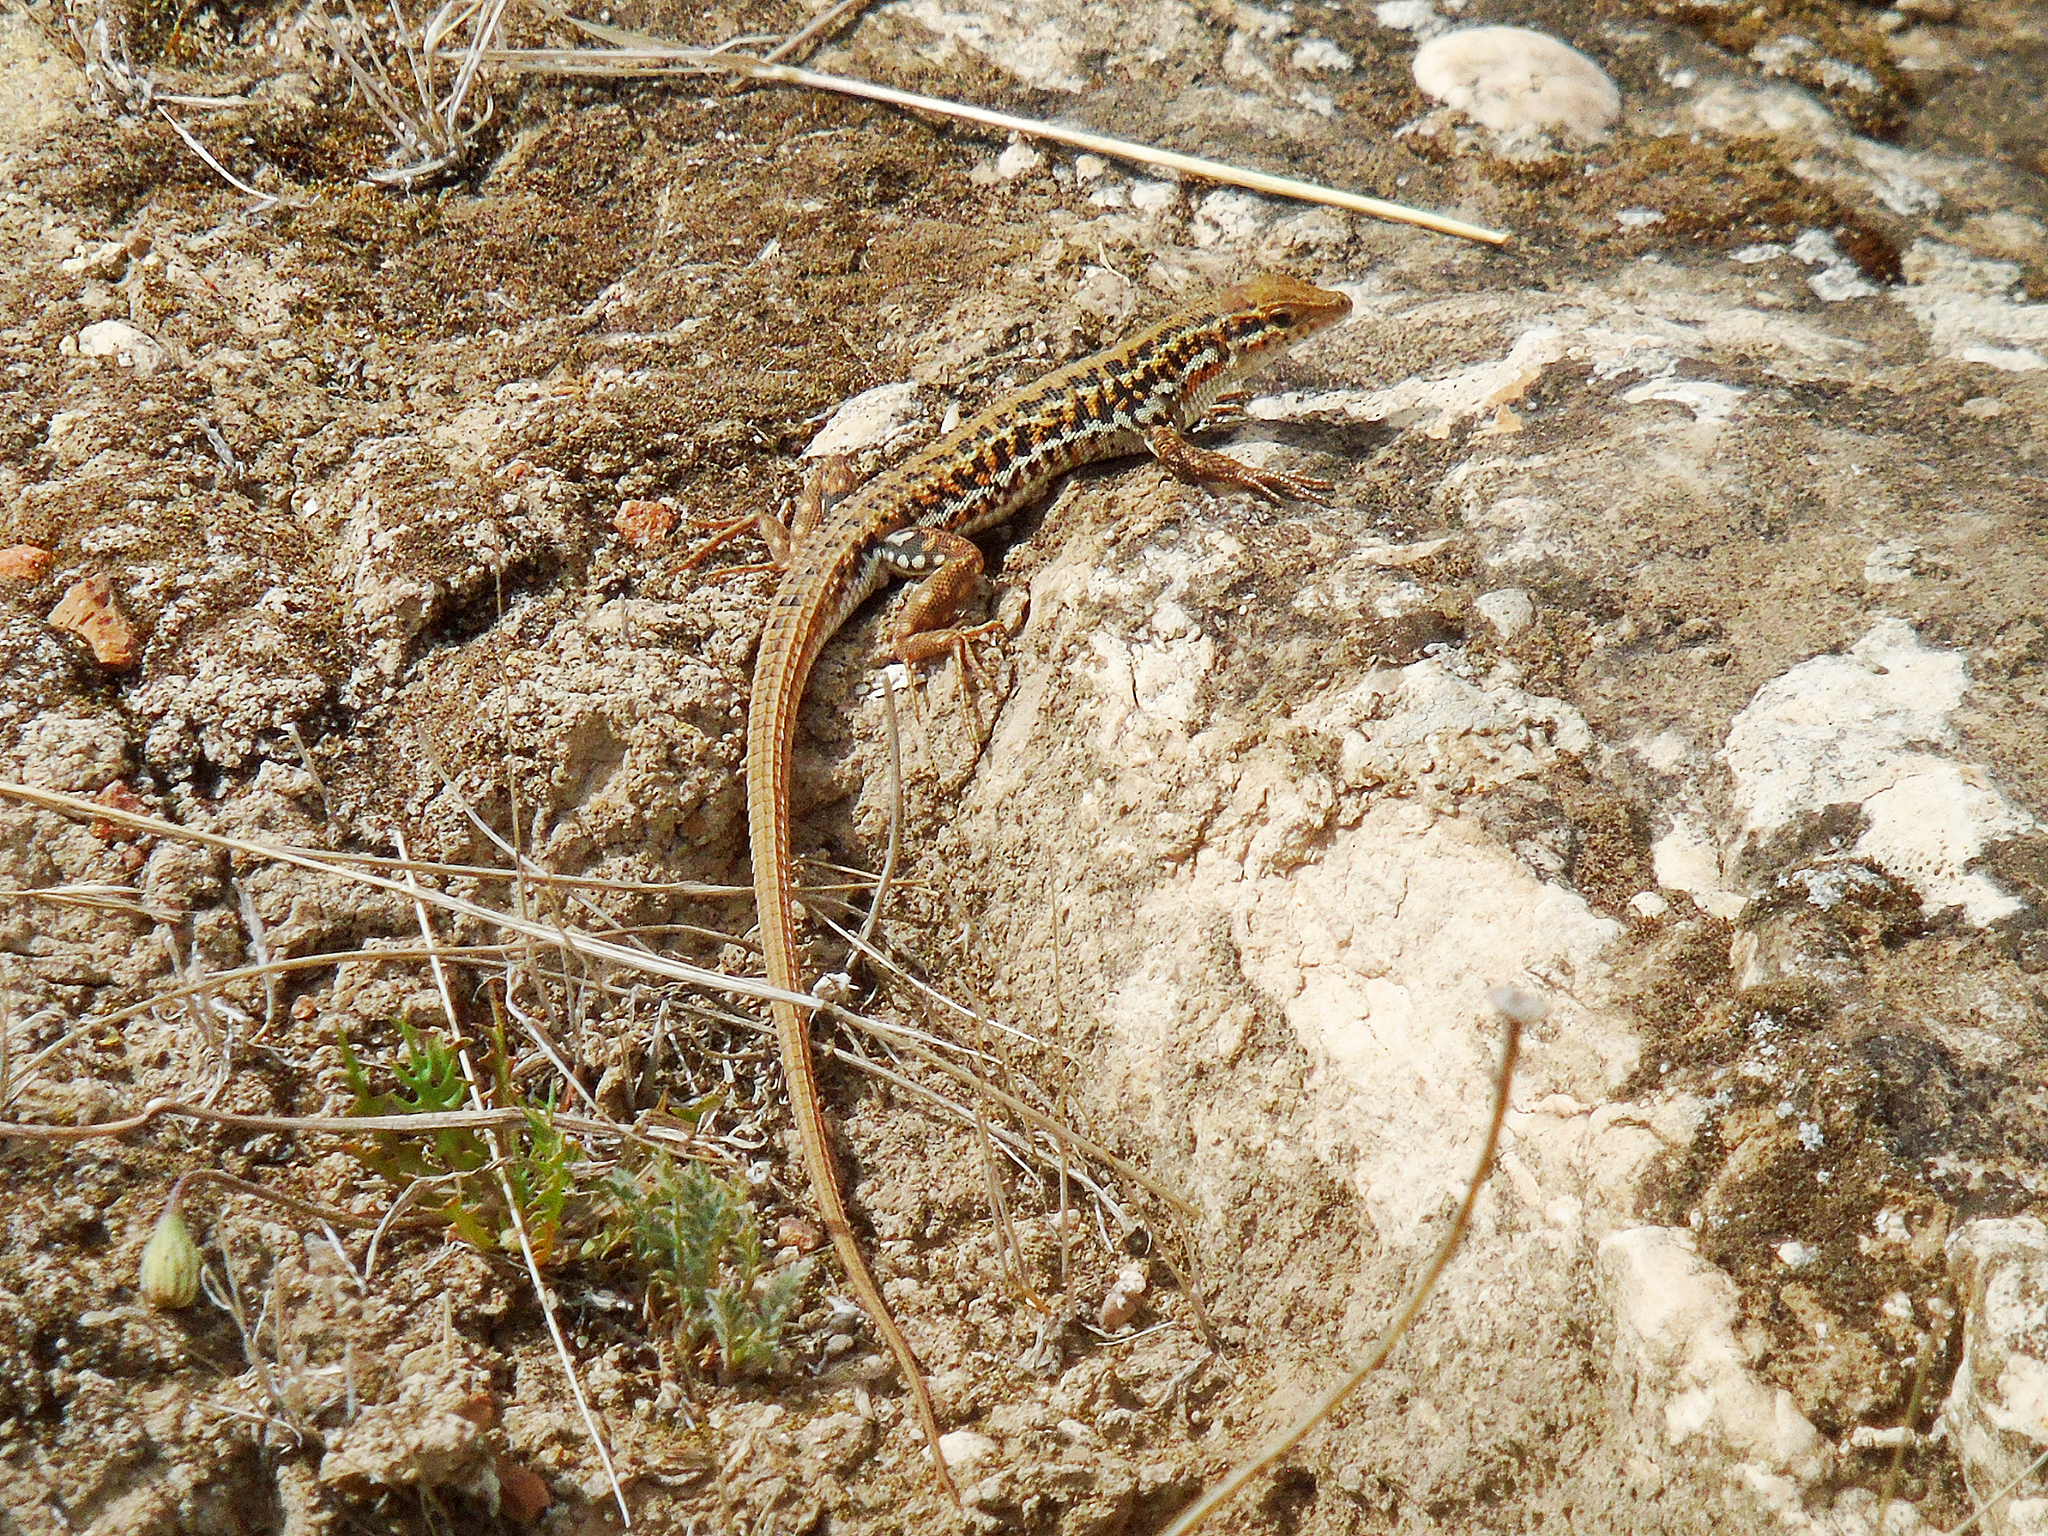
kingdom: Animalia
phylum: Chordata
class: Squamata
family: Lacertidae
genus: Ophisops
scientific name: Ophisops elegans
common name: Snake-eyed lizard
